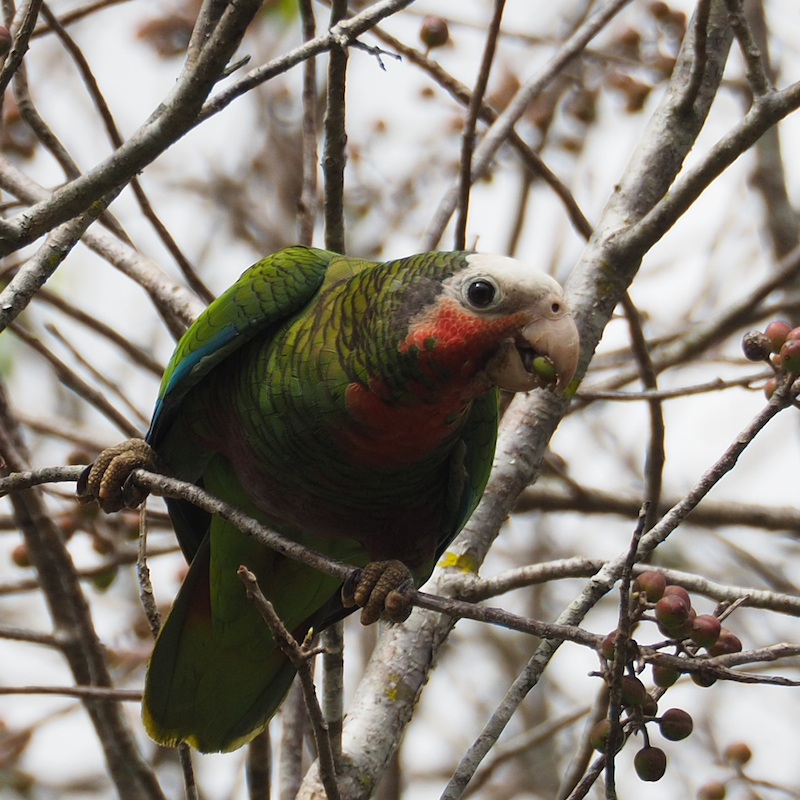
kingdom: Animalia
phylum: Chordata
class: Aves
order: Psittaciformes
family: Psittacidae
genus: Amazona
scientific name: Amazona leucocephala
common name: Cuban amazon
